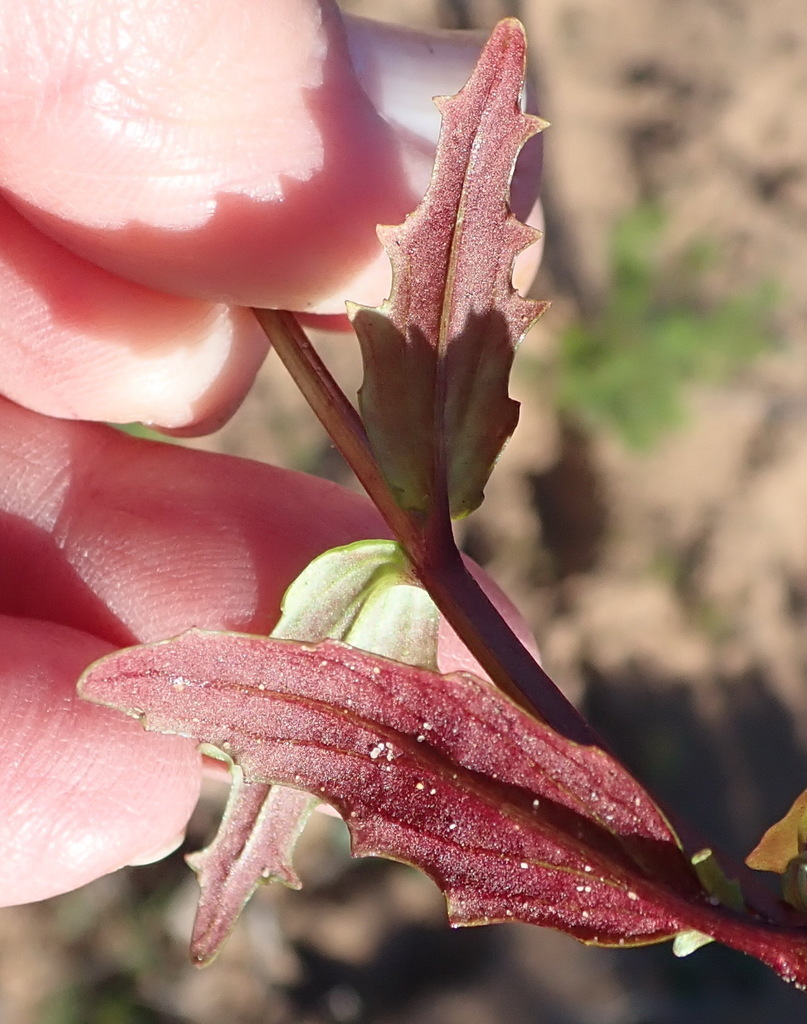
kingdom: Plantae
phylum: Tracheophyta
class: Magnoliopsida
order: Lamiales
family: Scrophulariaceae
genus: Nemesia
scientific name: Nemesia affinis
